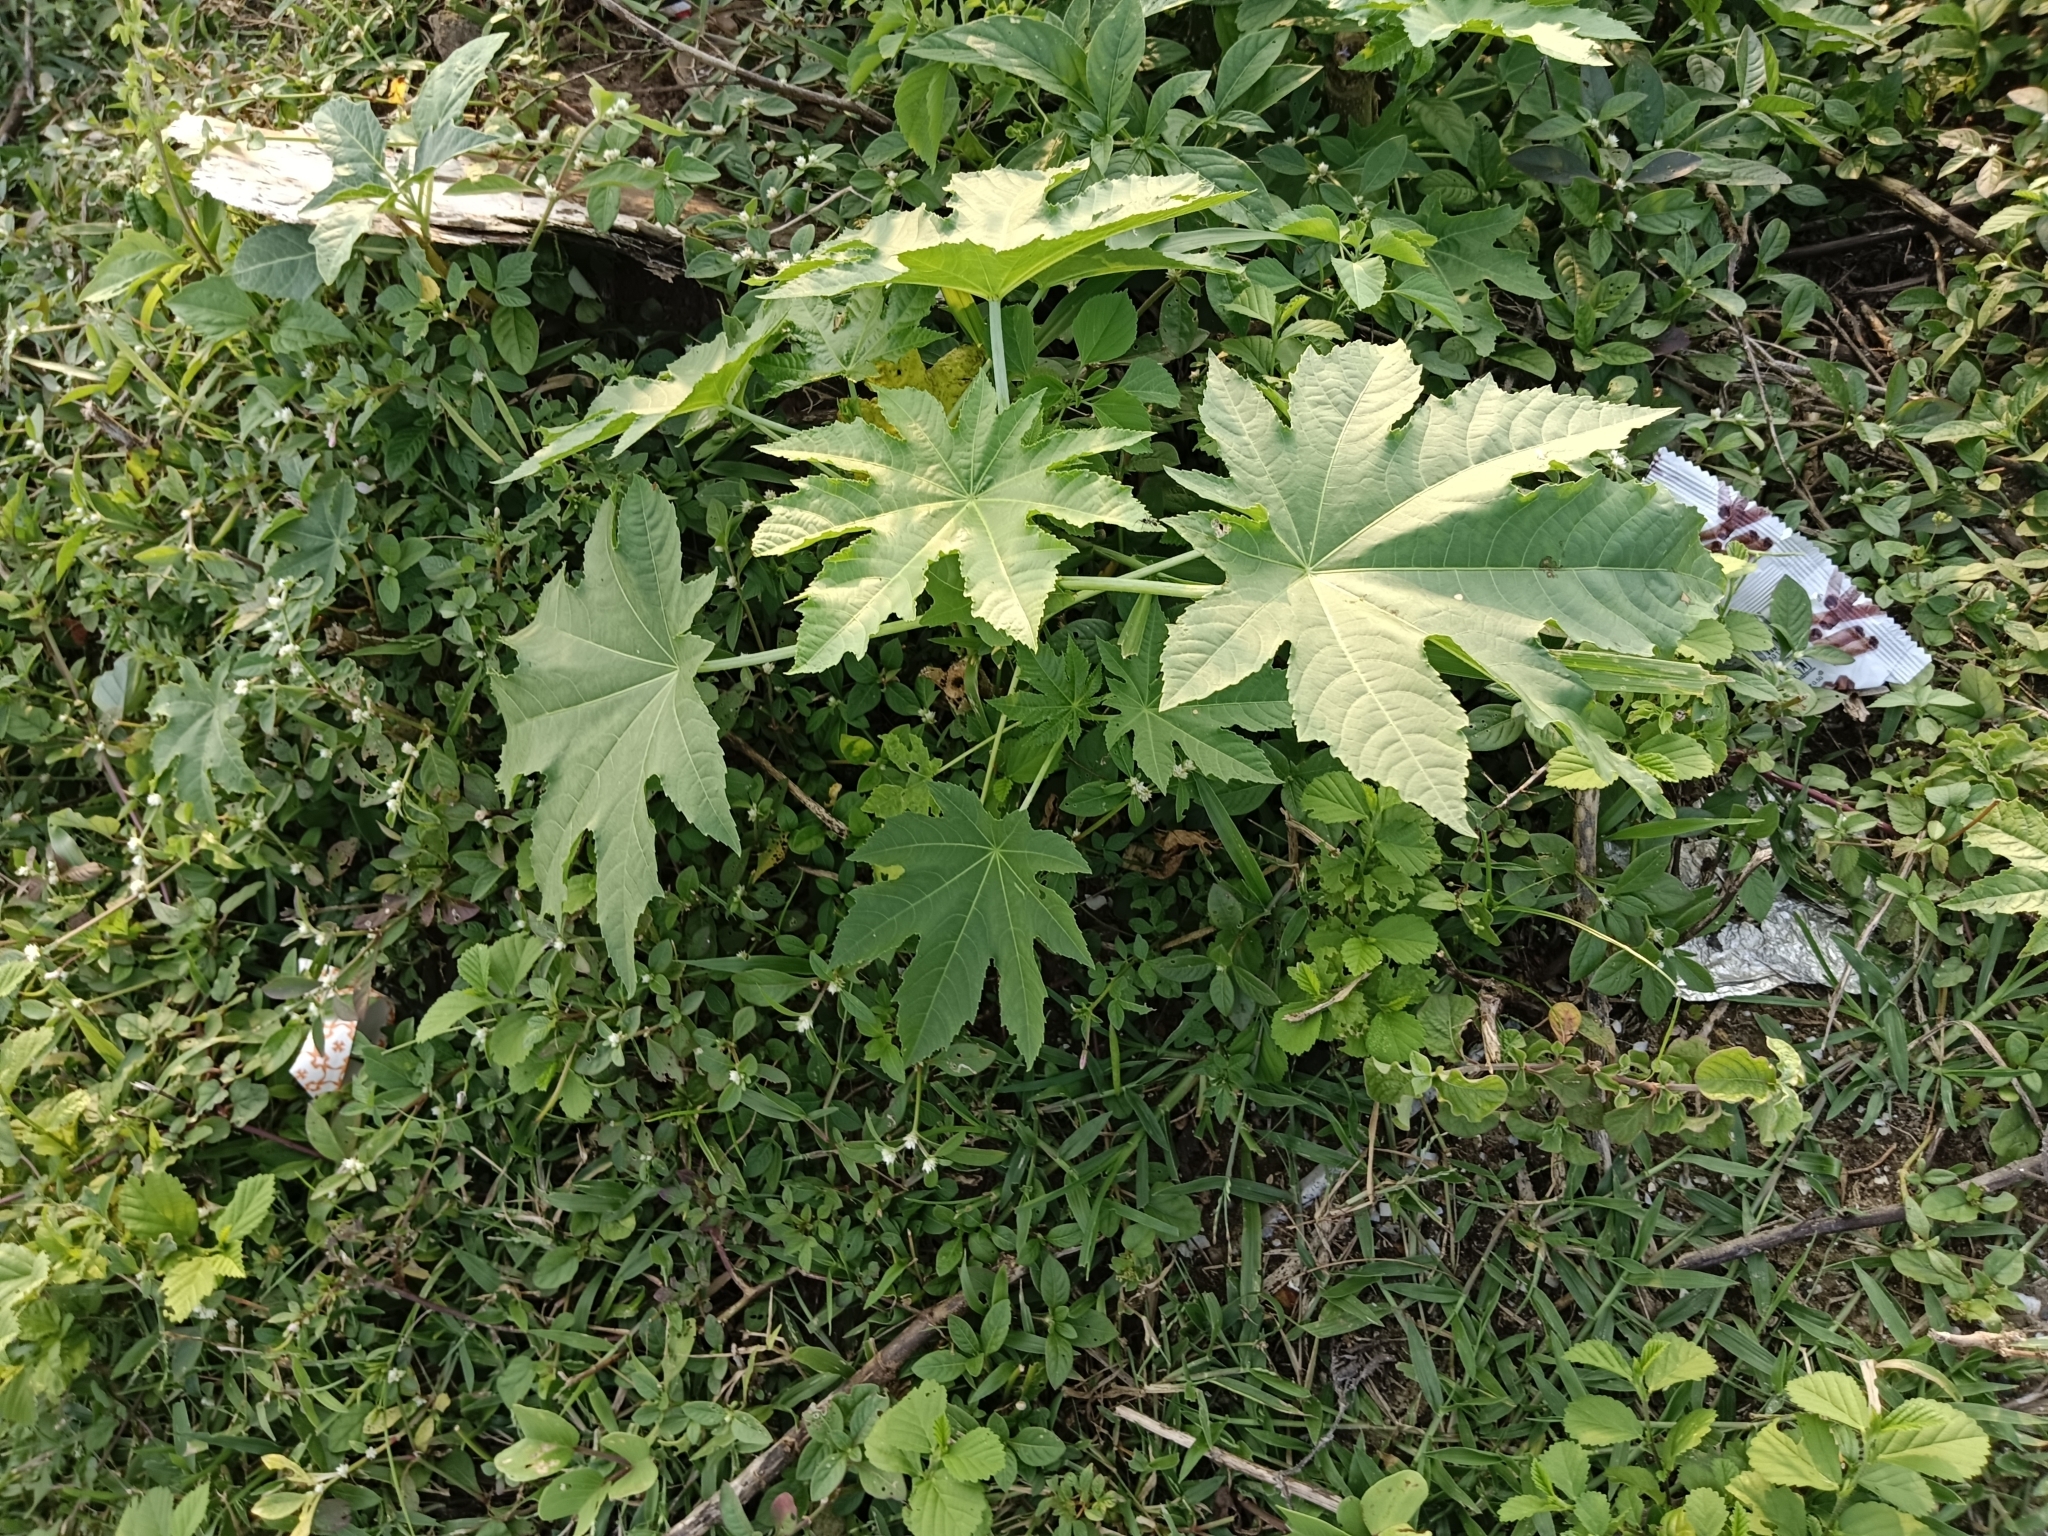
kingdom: Plantae
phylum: Tracheophyta
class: Magnoliopsida
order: Malpighiales
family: Euphorbiaceae
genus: Ricinus
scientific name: Ricinus communis
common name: Castor-oil-plant
